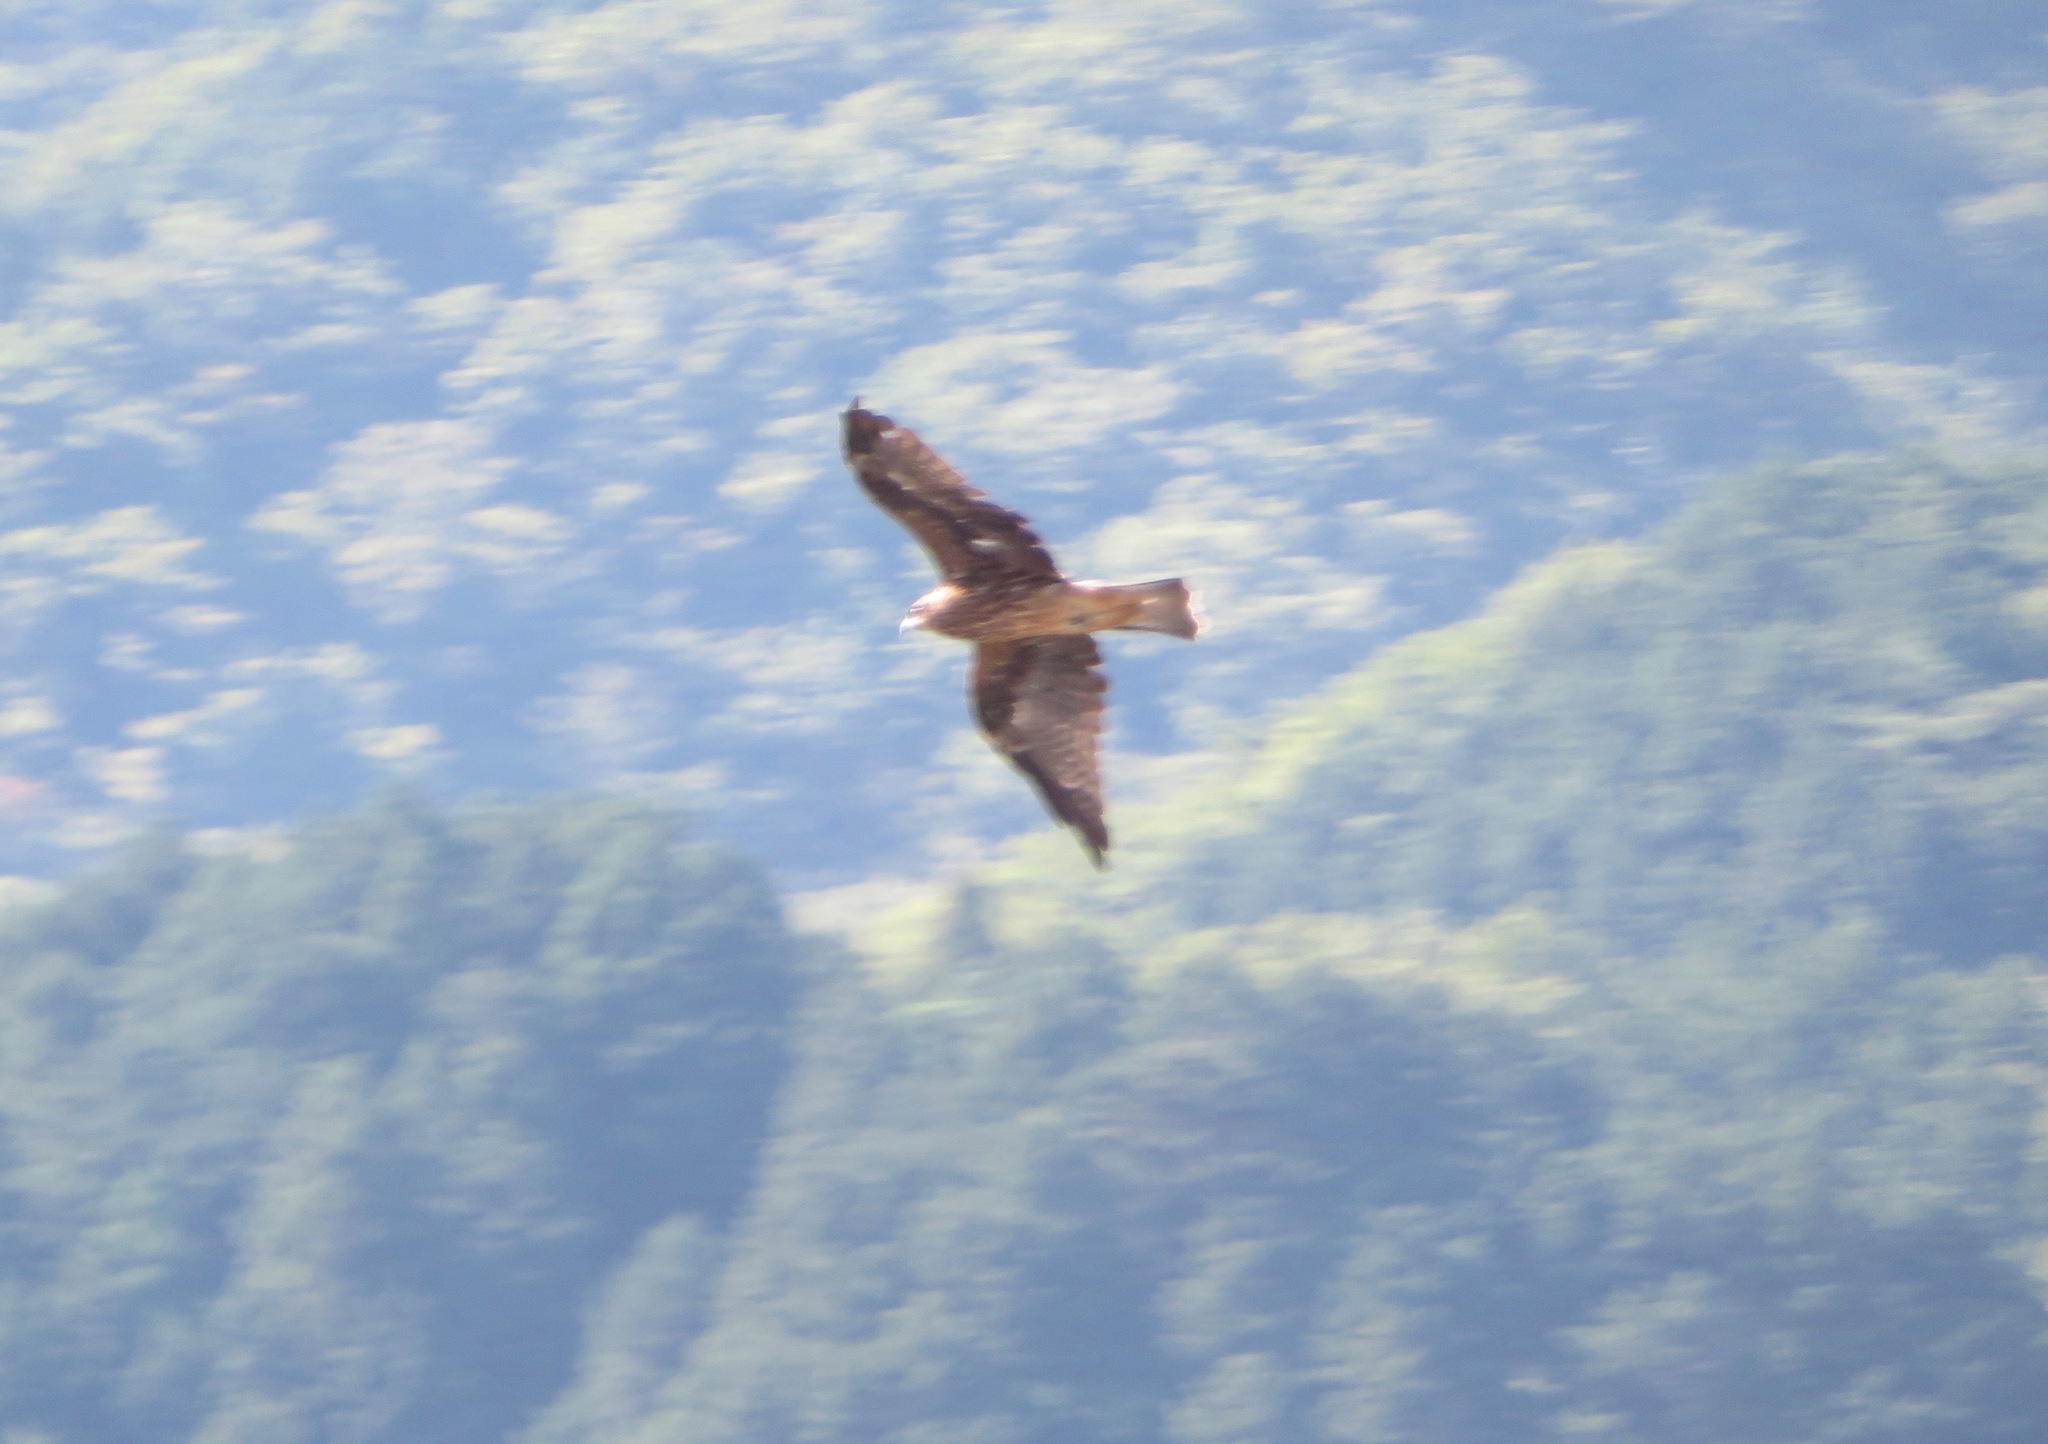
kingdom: Animalia
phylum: Chordata
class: Aves
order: Accipitriformes
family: Accipitridae
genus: Milvus
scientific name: Milvus migrans
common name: Black kite
